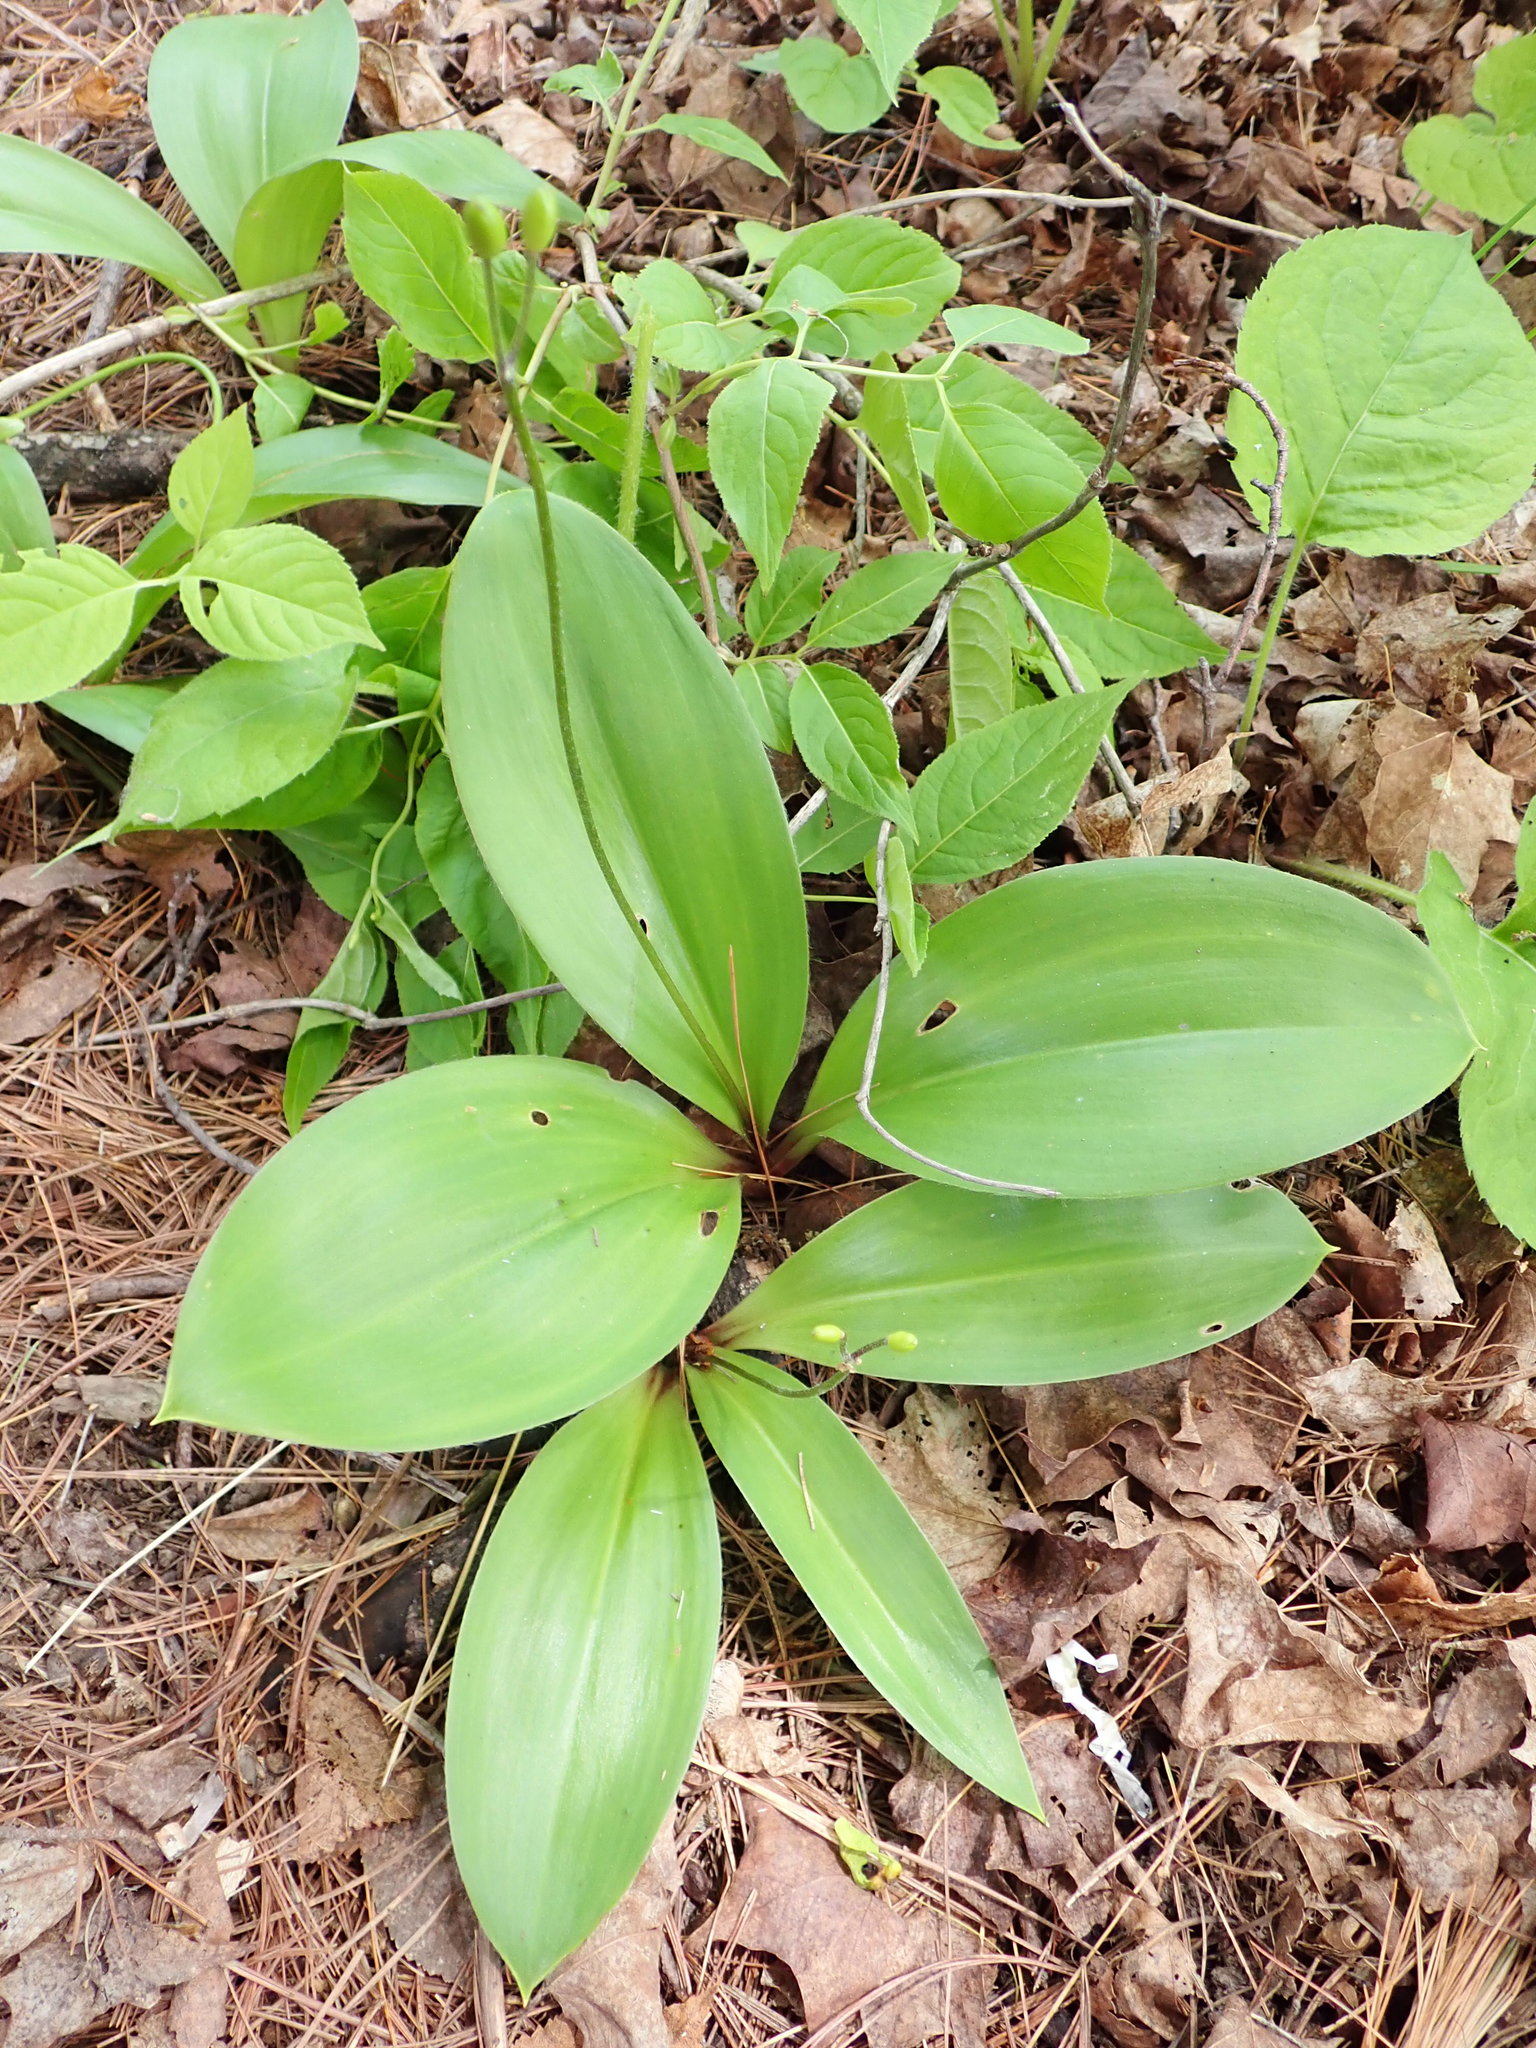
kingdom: Plantae
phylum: Tracheophyta
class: Liliopsida
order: Liliales
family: Liliaceae
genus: Clintonia
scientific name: Clintonia borealis
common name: Yellow clintonia
